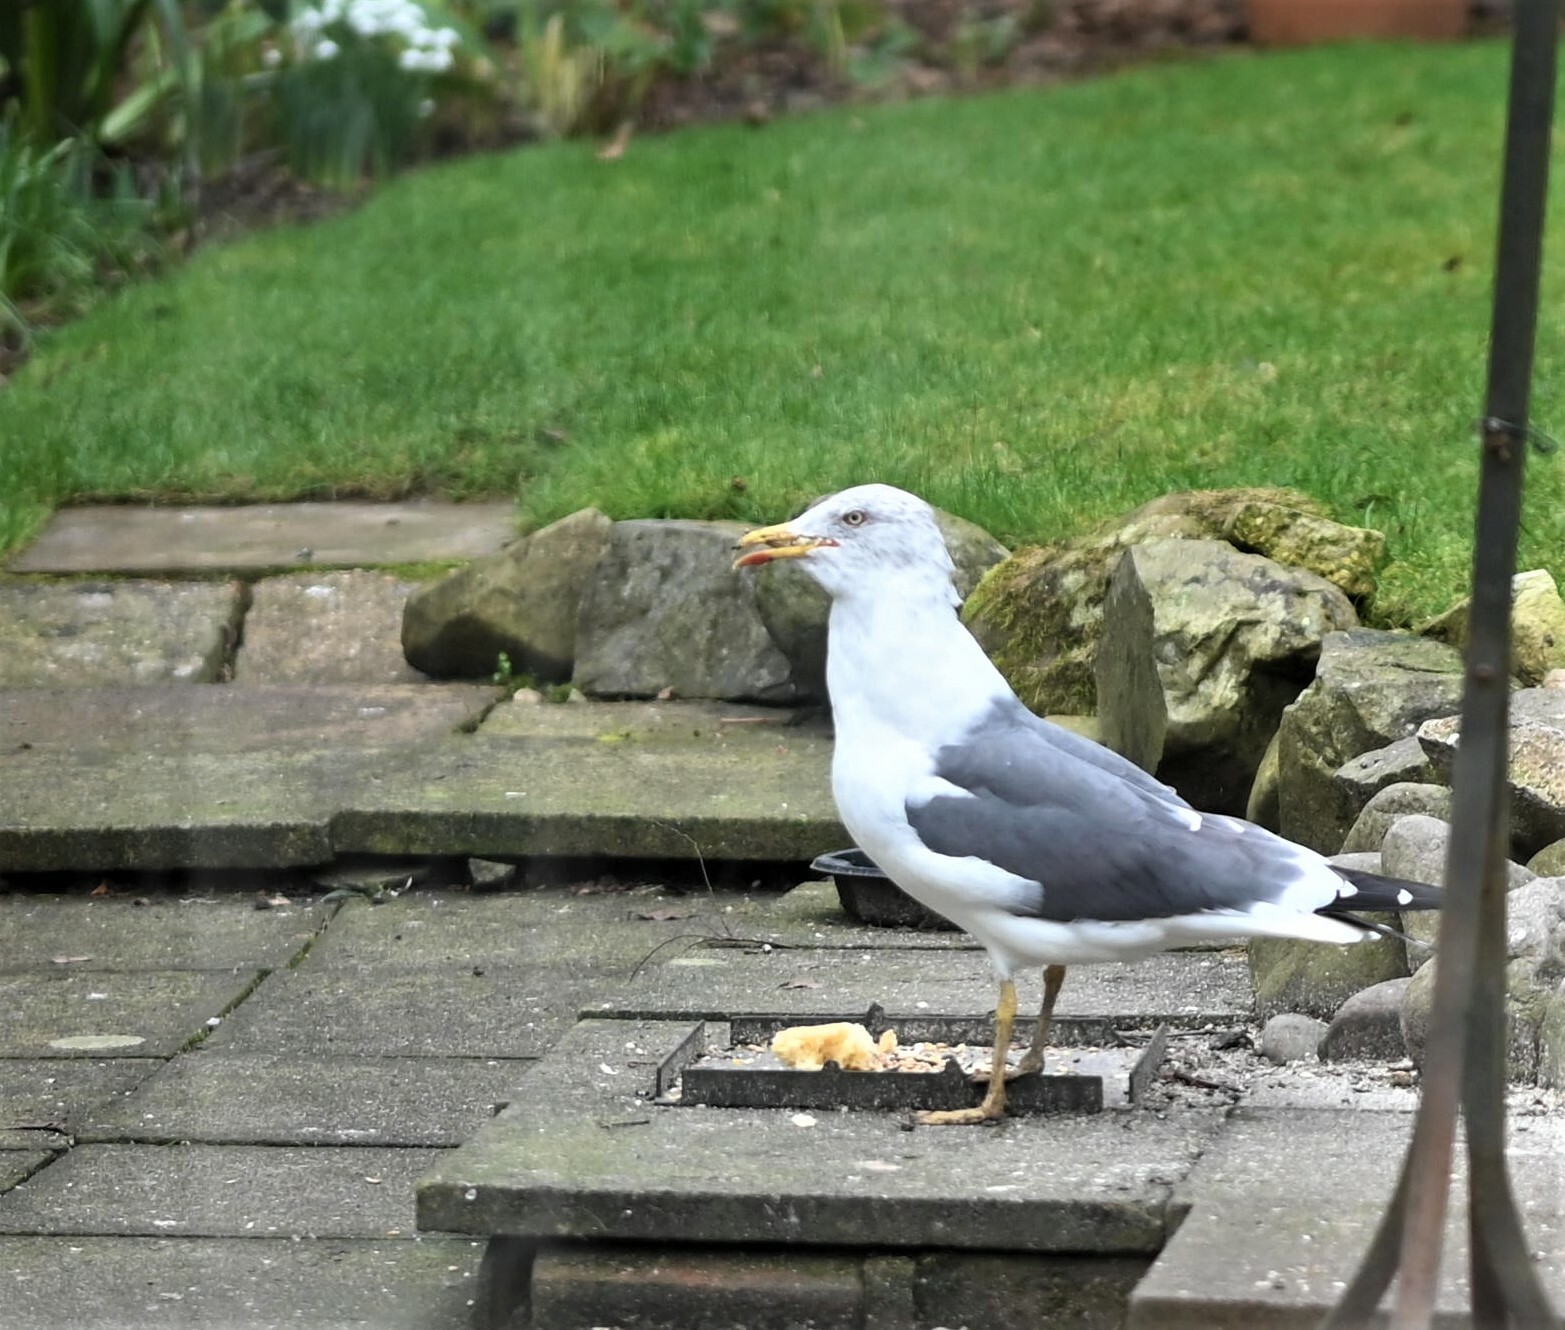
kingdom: Animalia
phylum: Chordata
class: Aves
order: Charadriiformes
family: Laridae
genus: Larus
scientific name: Larus fuscus
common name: Lesser black-backed gull
